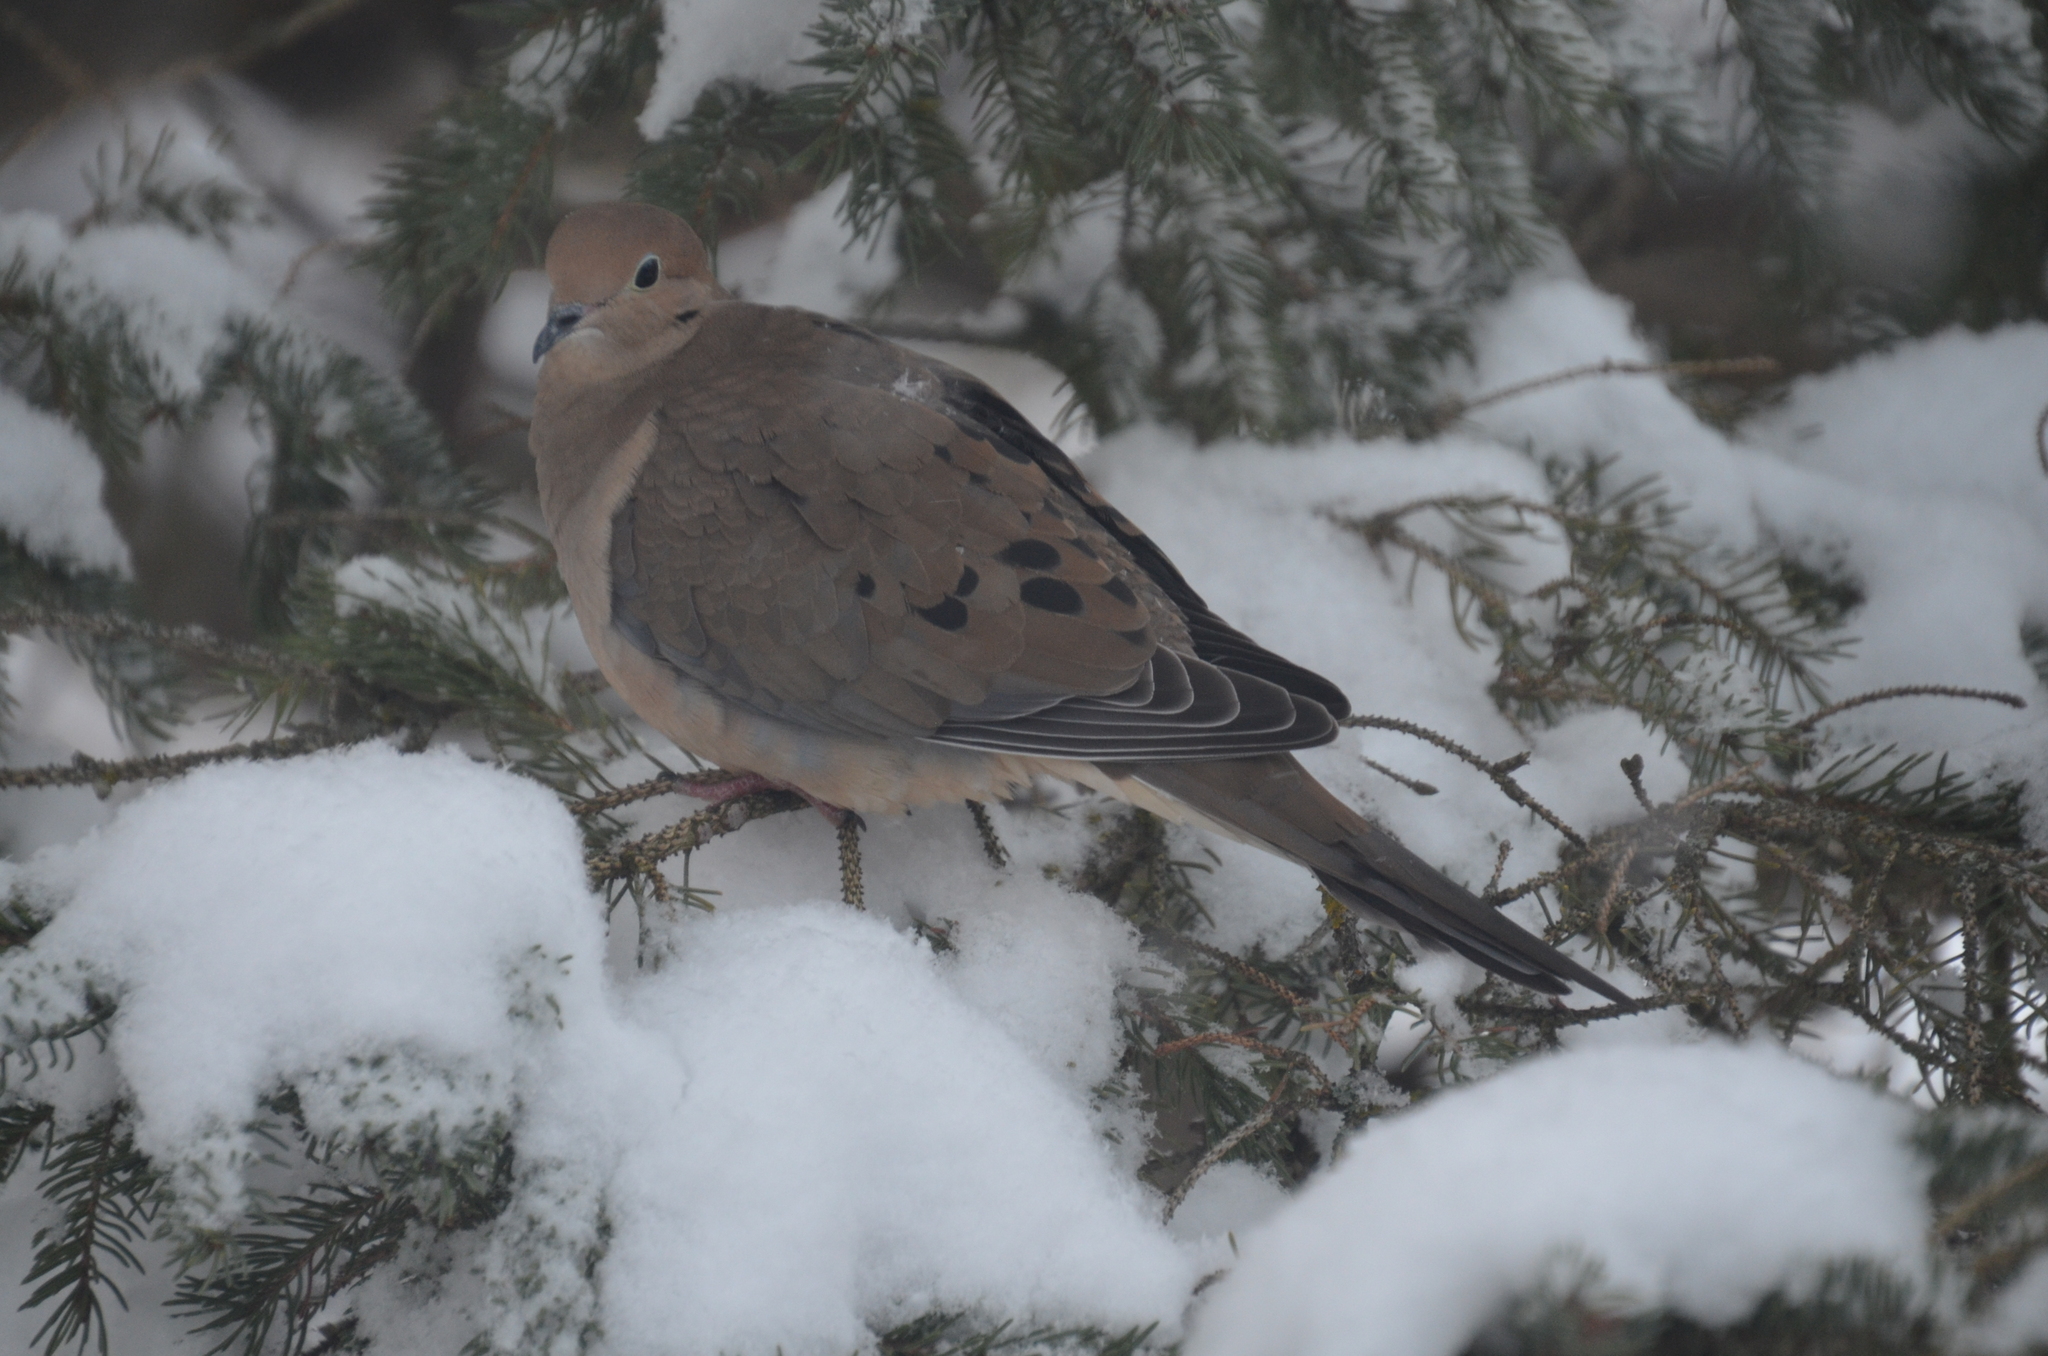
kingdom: Animalia
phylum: Chordata
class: Aves
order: Columbiformes
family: Columbidae
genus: Zenaida
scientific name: Zenaida macroura
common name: Mourning dove
